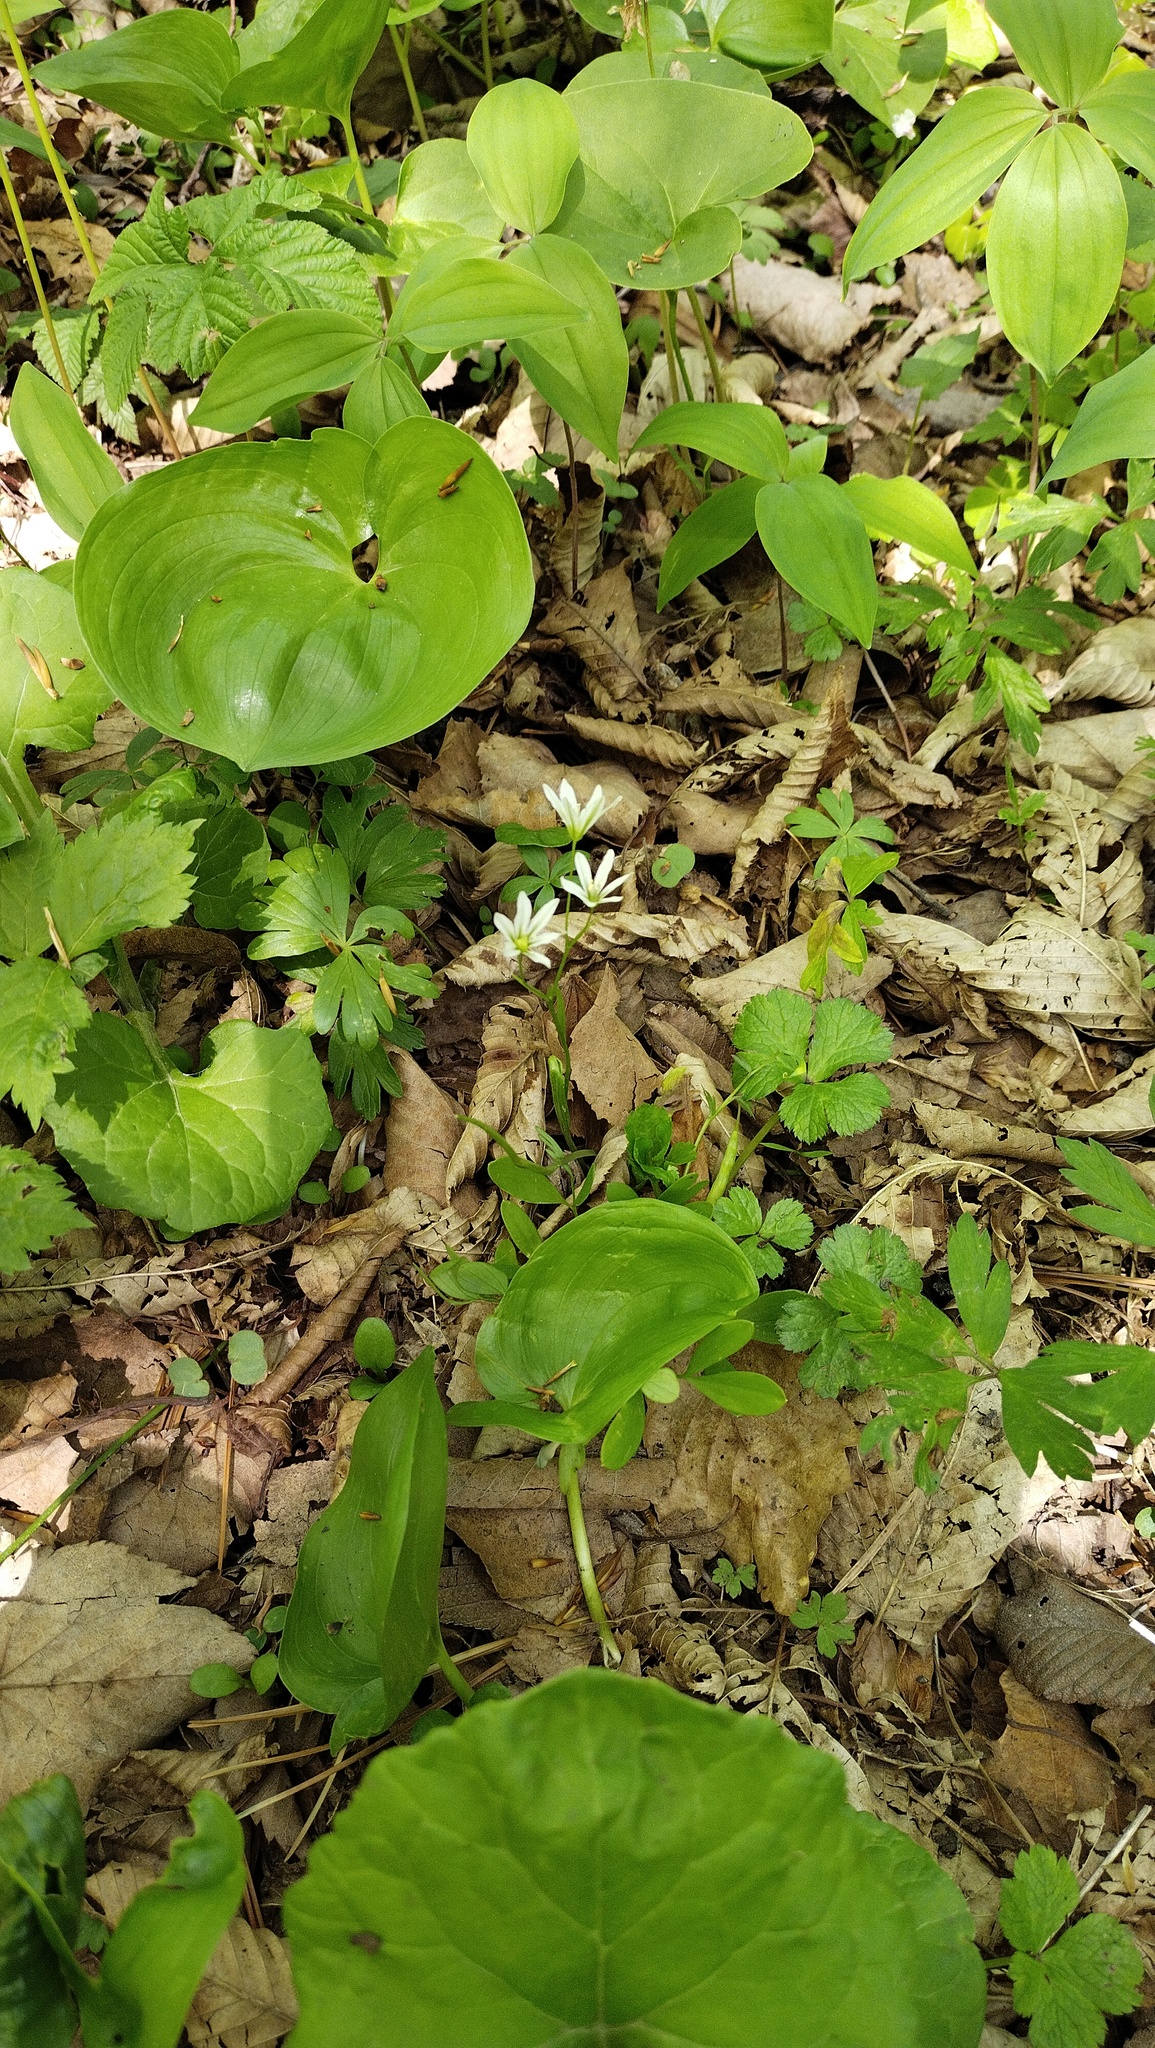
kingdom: Plantae
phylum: Tracheophyta
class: Liliopsida
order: Liliales
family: Liliaceae
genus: Gagea
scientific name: Gagea triflora
